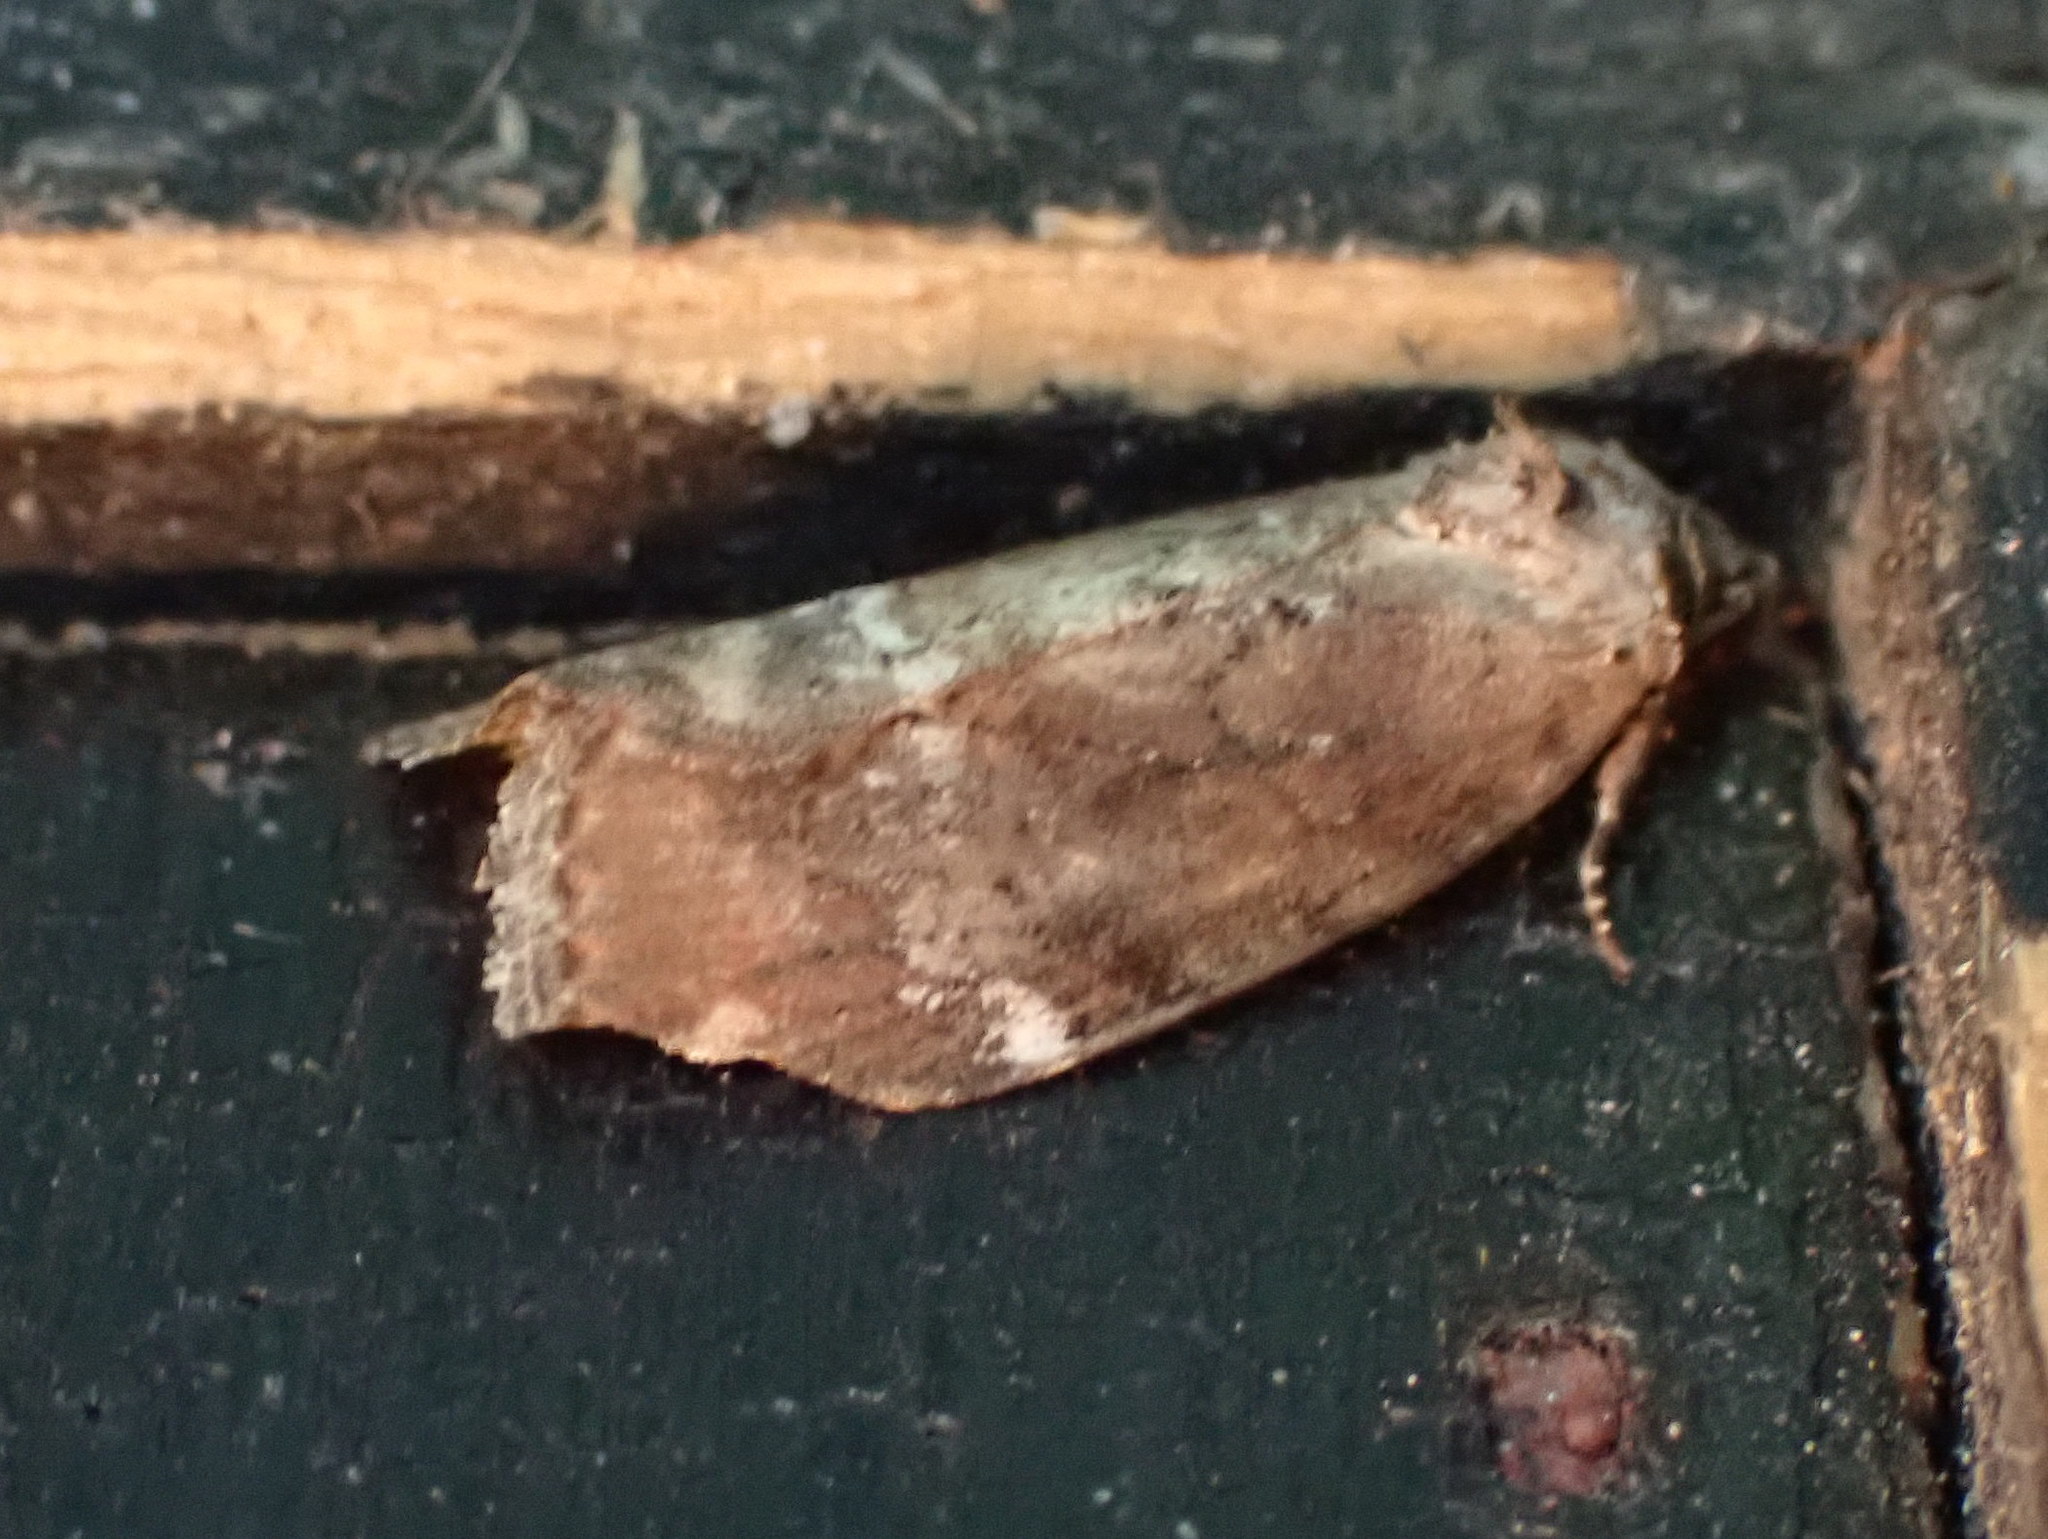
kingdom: Animalia
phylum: Arthropoda
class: Insecta
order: Lepidoptera
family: Noctuidae
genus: Elaphria
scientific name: Elaphria versicolor
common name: Fir harlequin
